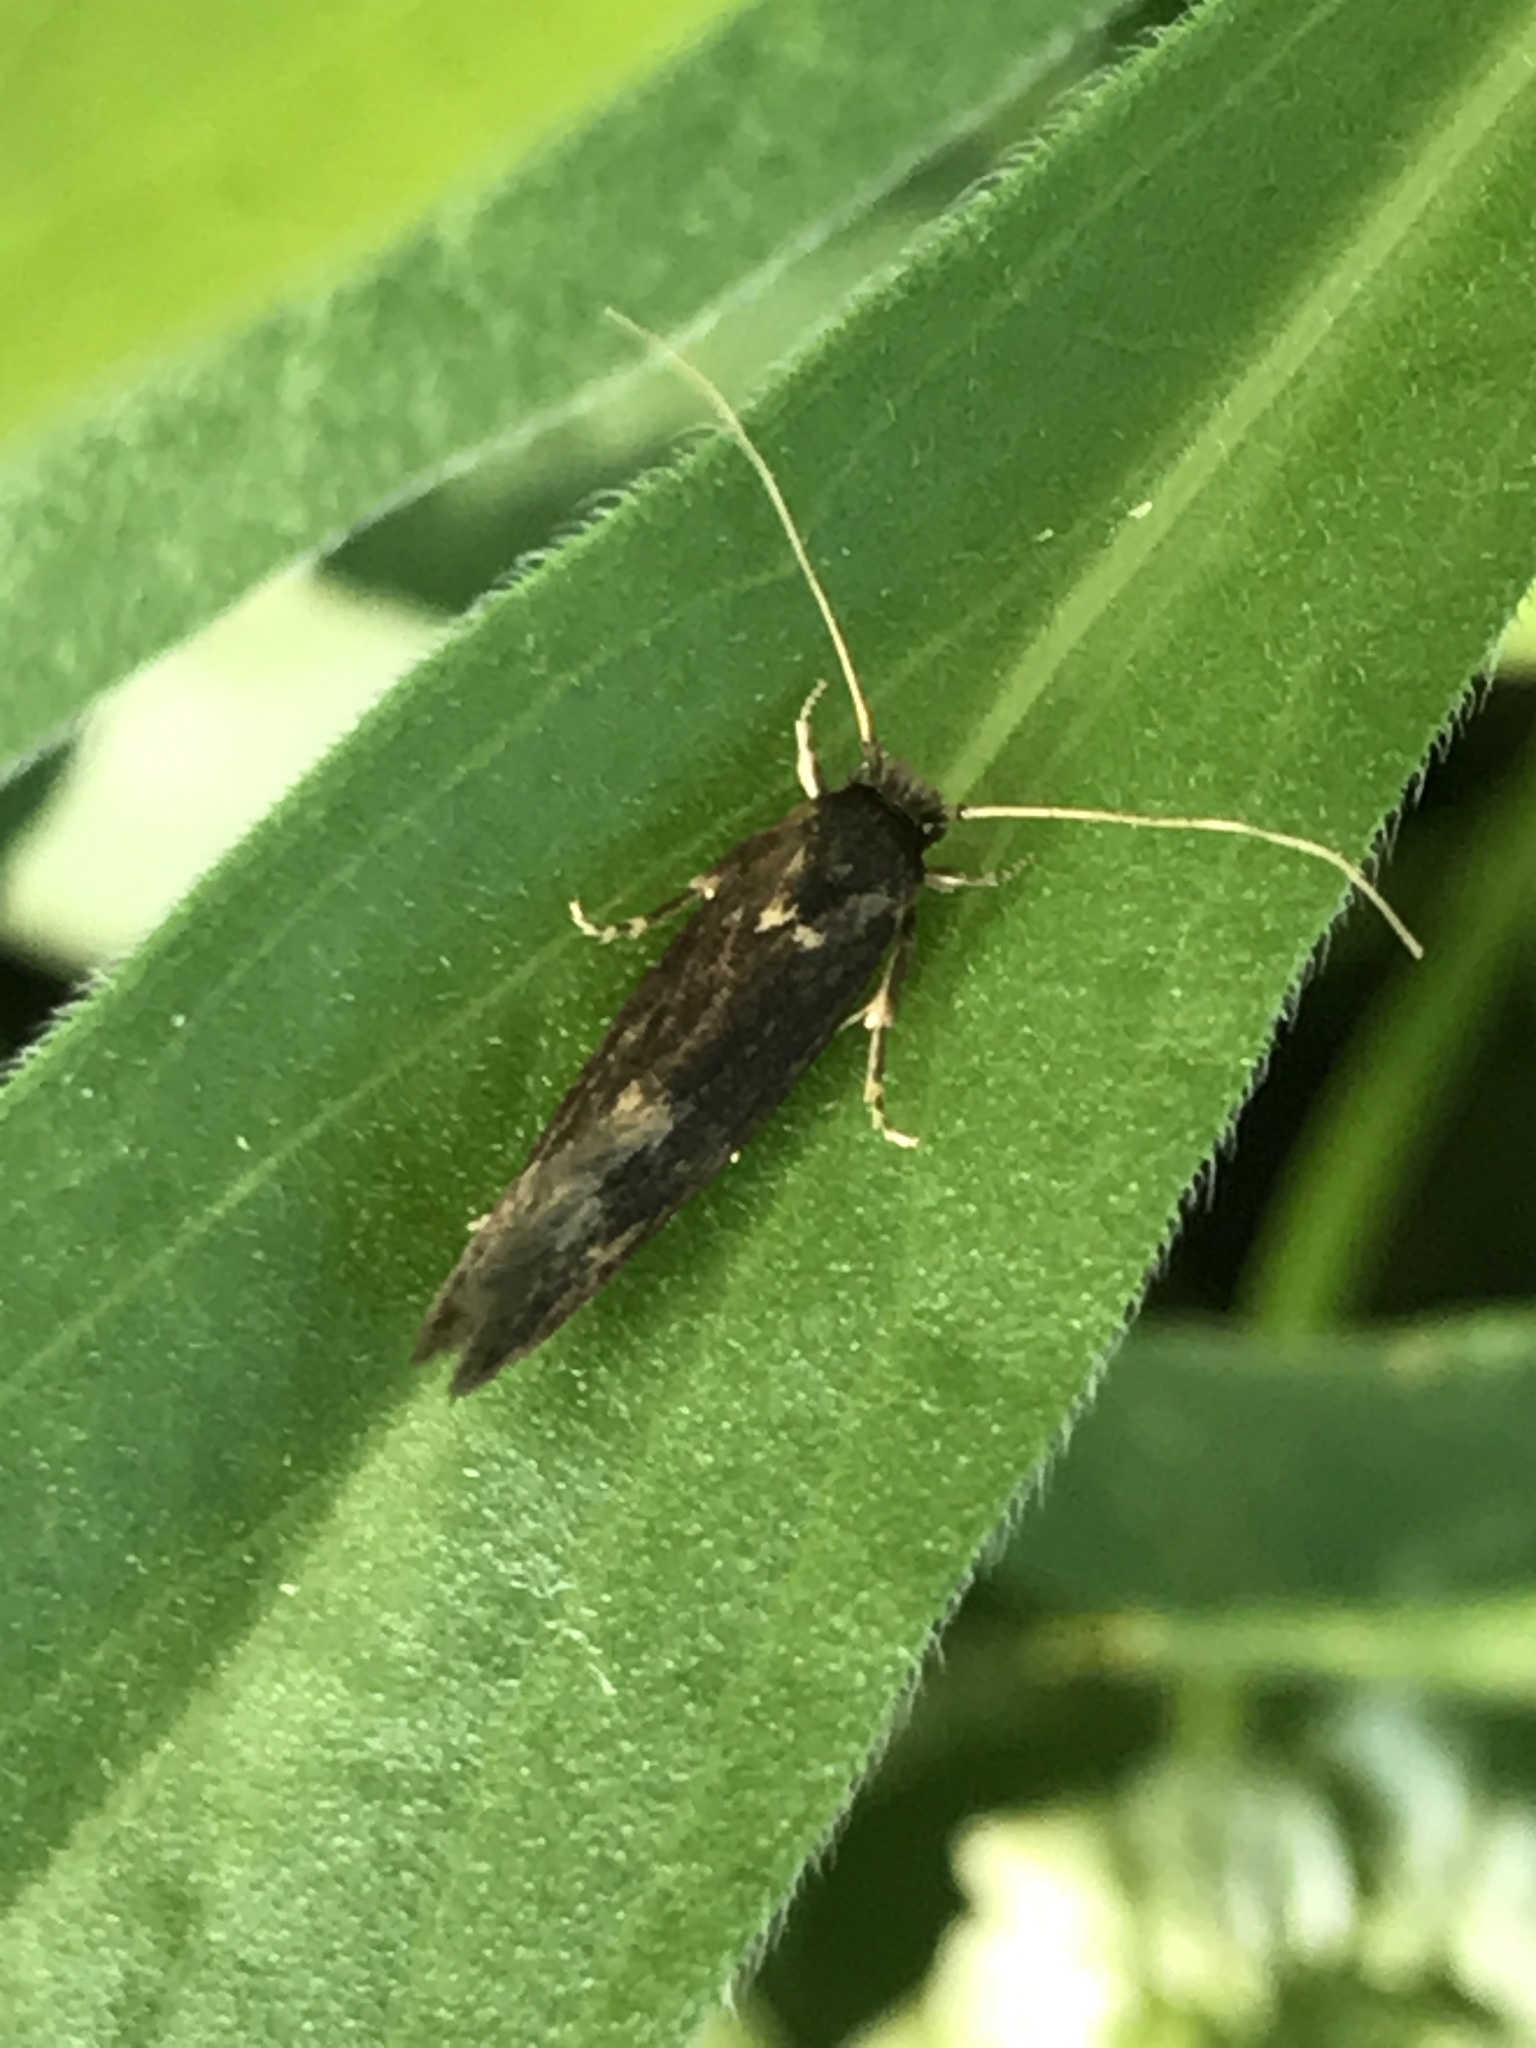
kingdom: Animalia
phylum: Arthropoda
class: Insecta
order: Lepidoptera
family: Tineidae
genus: Opogona
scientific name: Opogona omoscopa
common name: Moth
